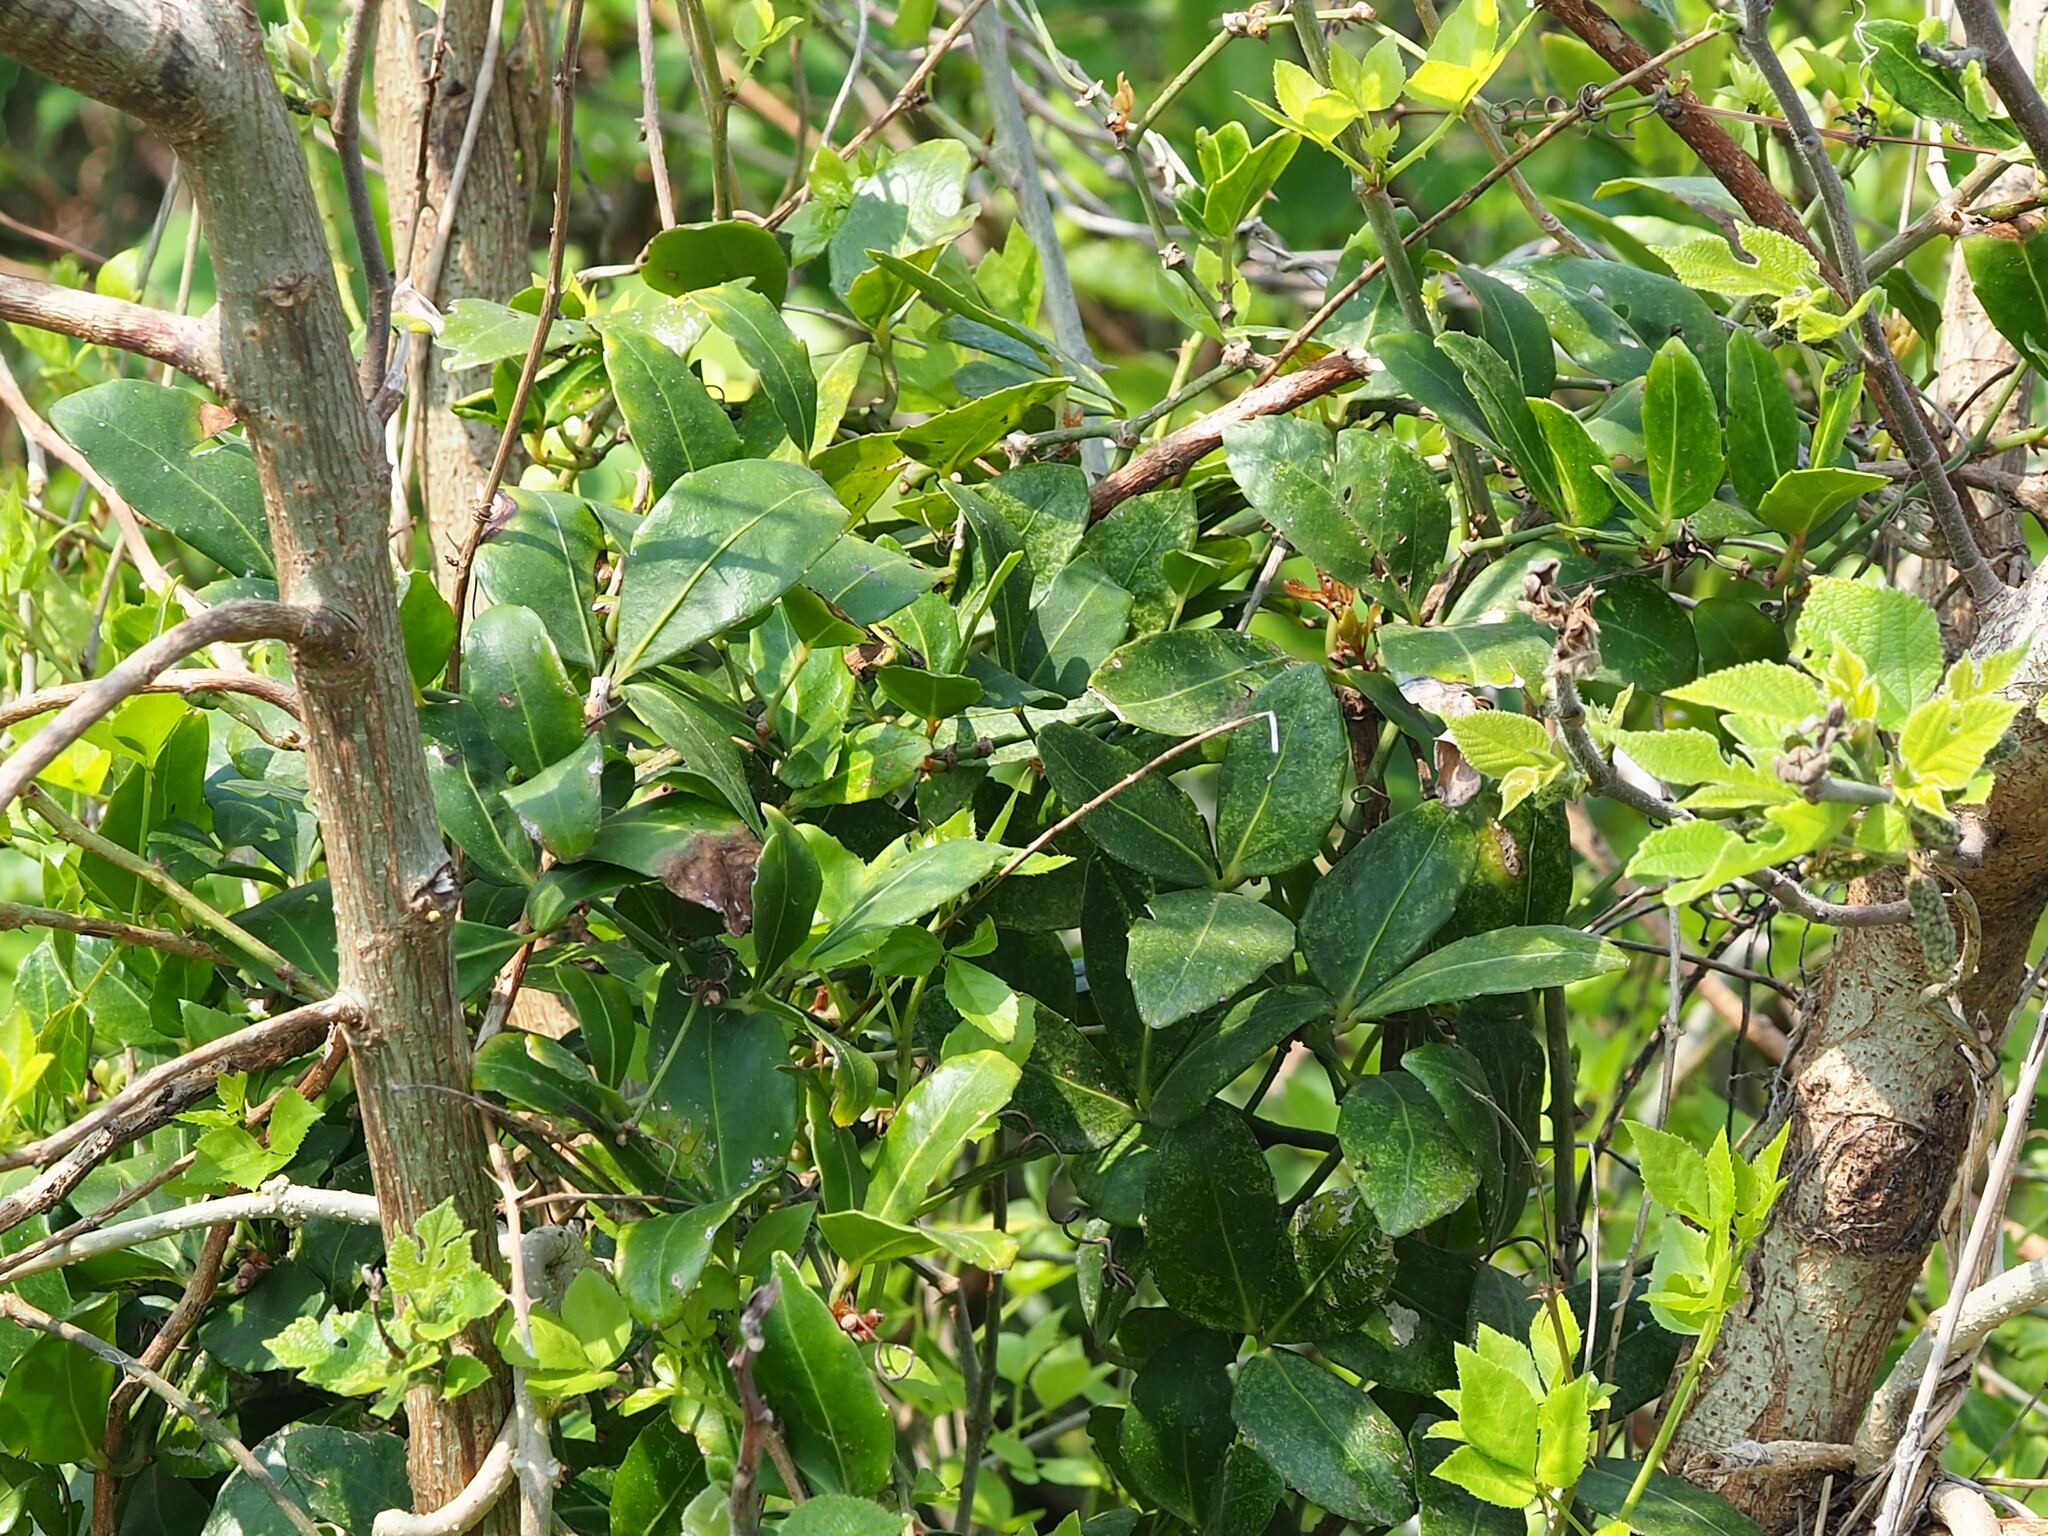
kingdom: Plantae
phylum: Tracheophyta
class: Magnoliopsida
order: Vitales
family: Vitaceae
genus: Tetrastigma
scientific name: Tetrastigma formosanum
